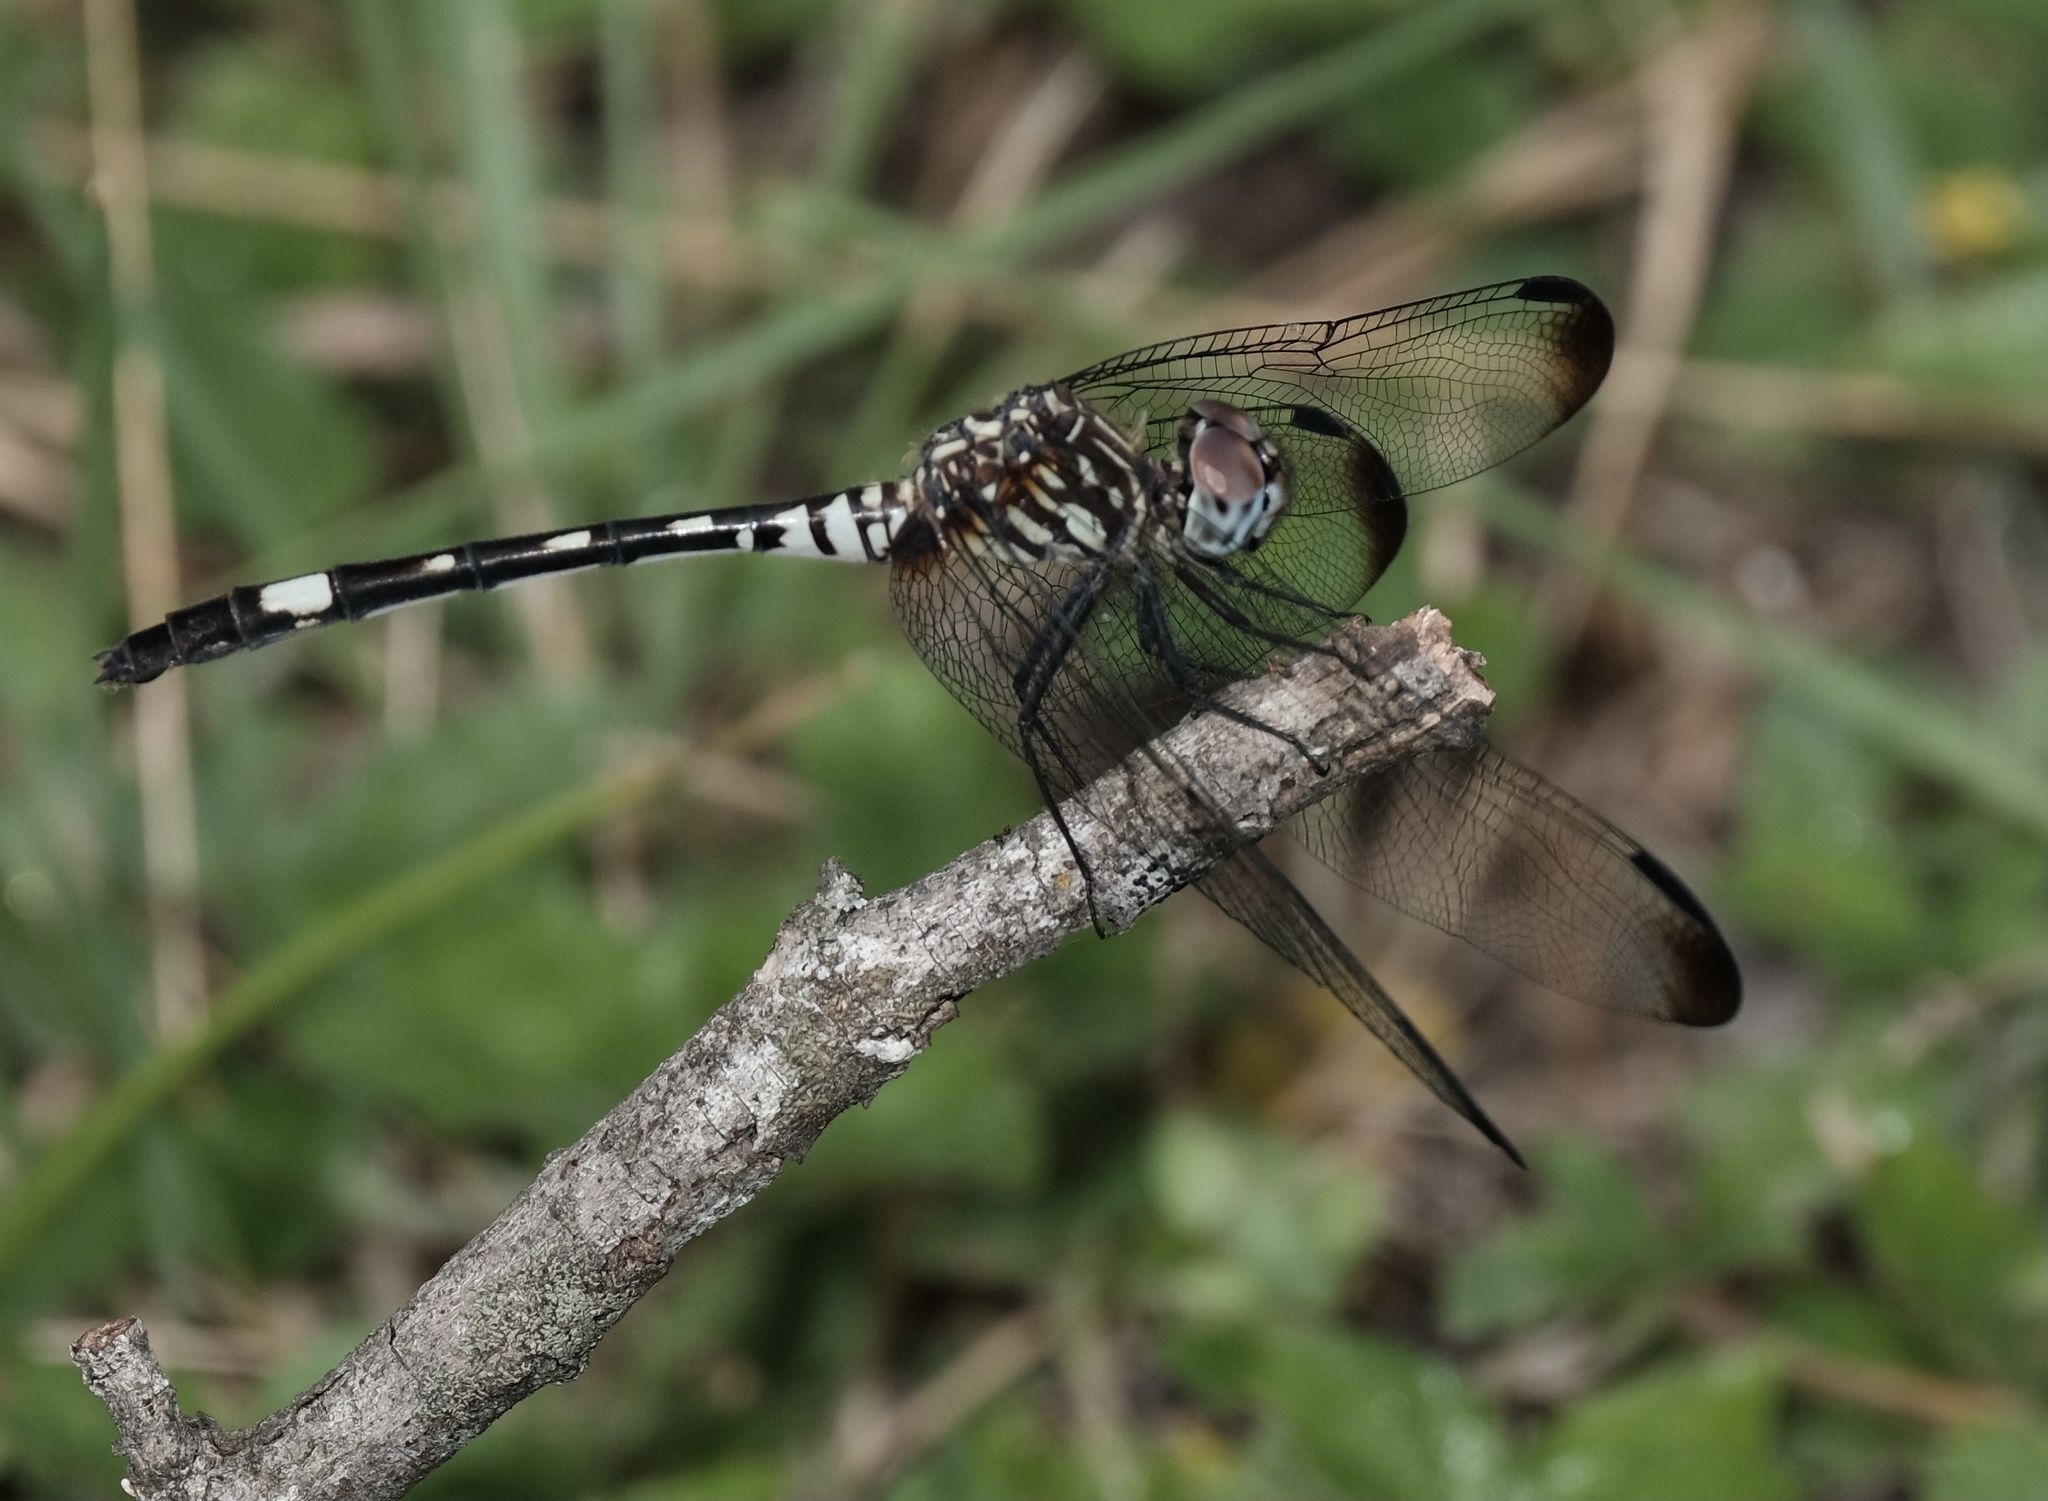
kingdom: Animalia
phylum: Arthropoda
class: Insecta
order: Odonata
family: Libellulidae
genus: Dythemis
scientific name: Dythemis velox
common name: Swift setwing
